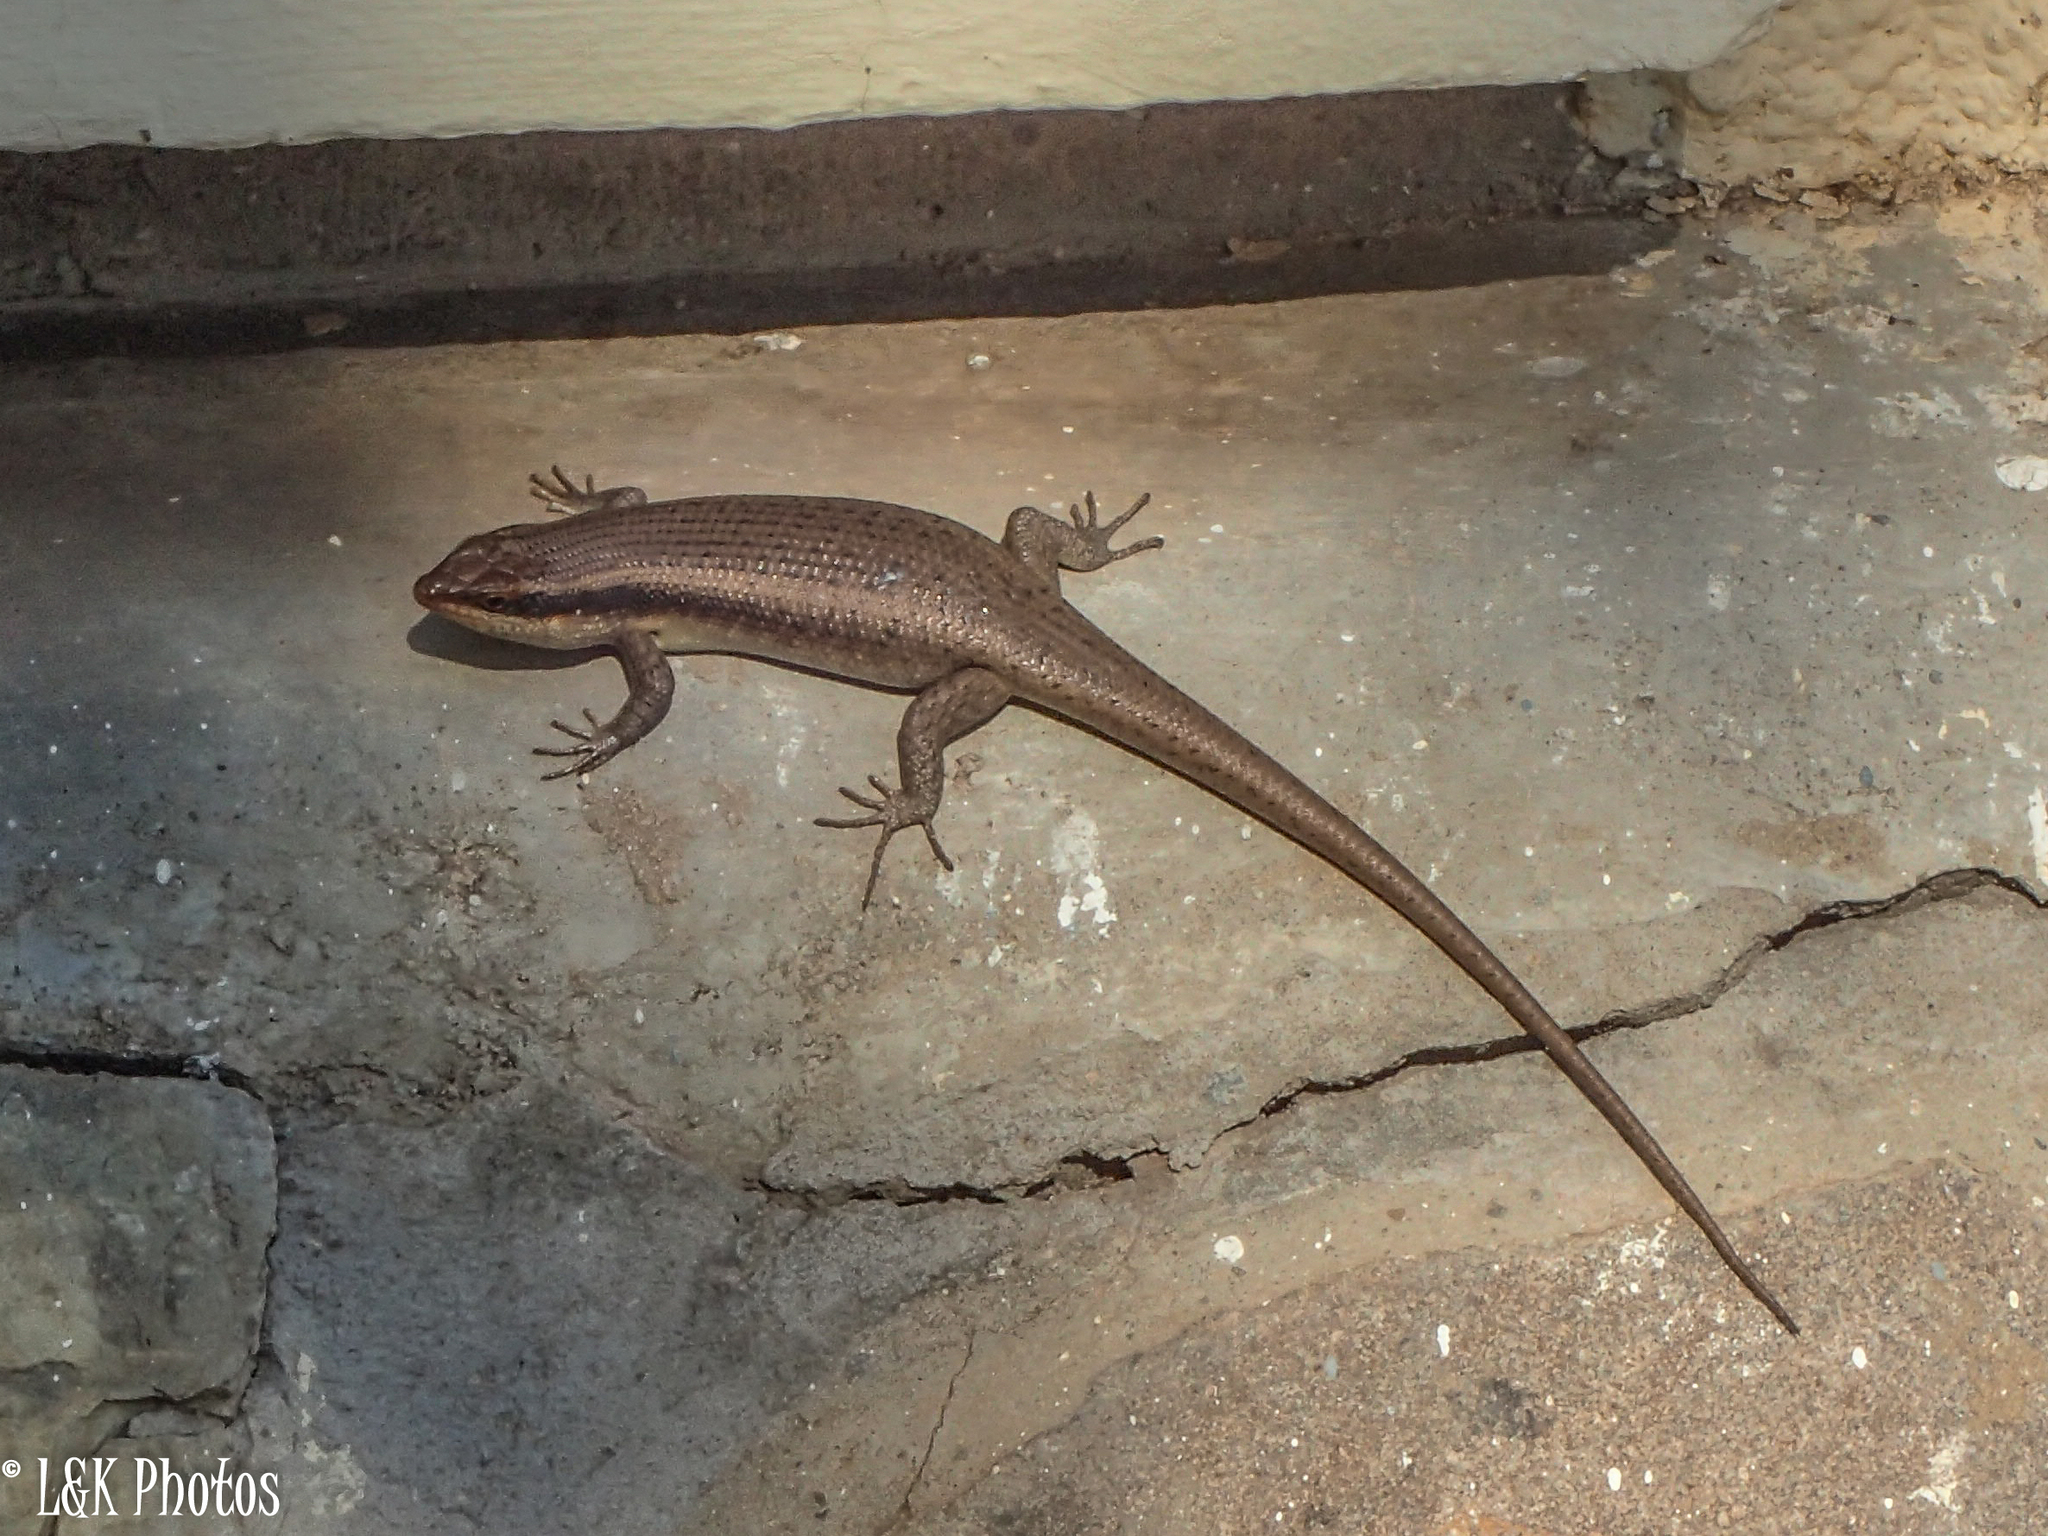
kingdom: Animalia
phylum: Chordata
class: Squamata
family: Scincidae
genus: Trachylepis
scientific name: Trachylepis wahlbergii
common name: Wahlberg’s striped skink
